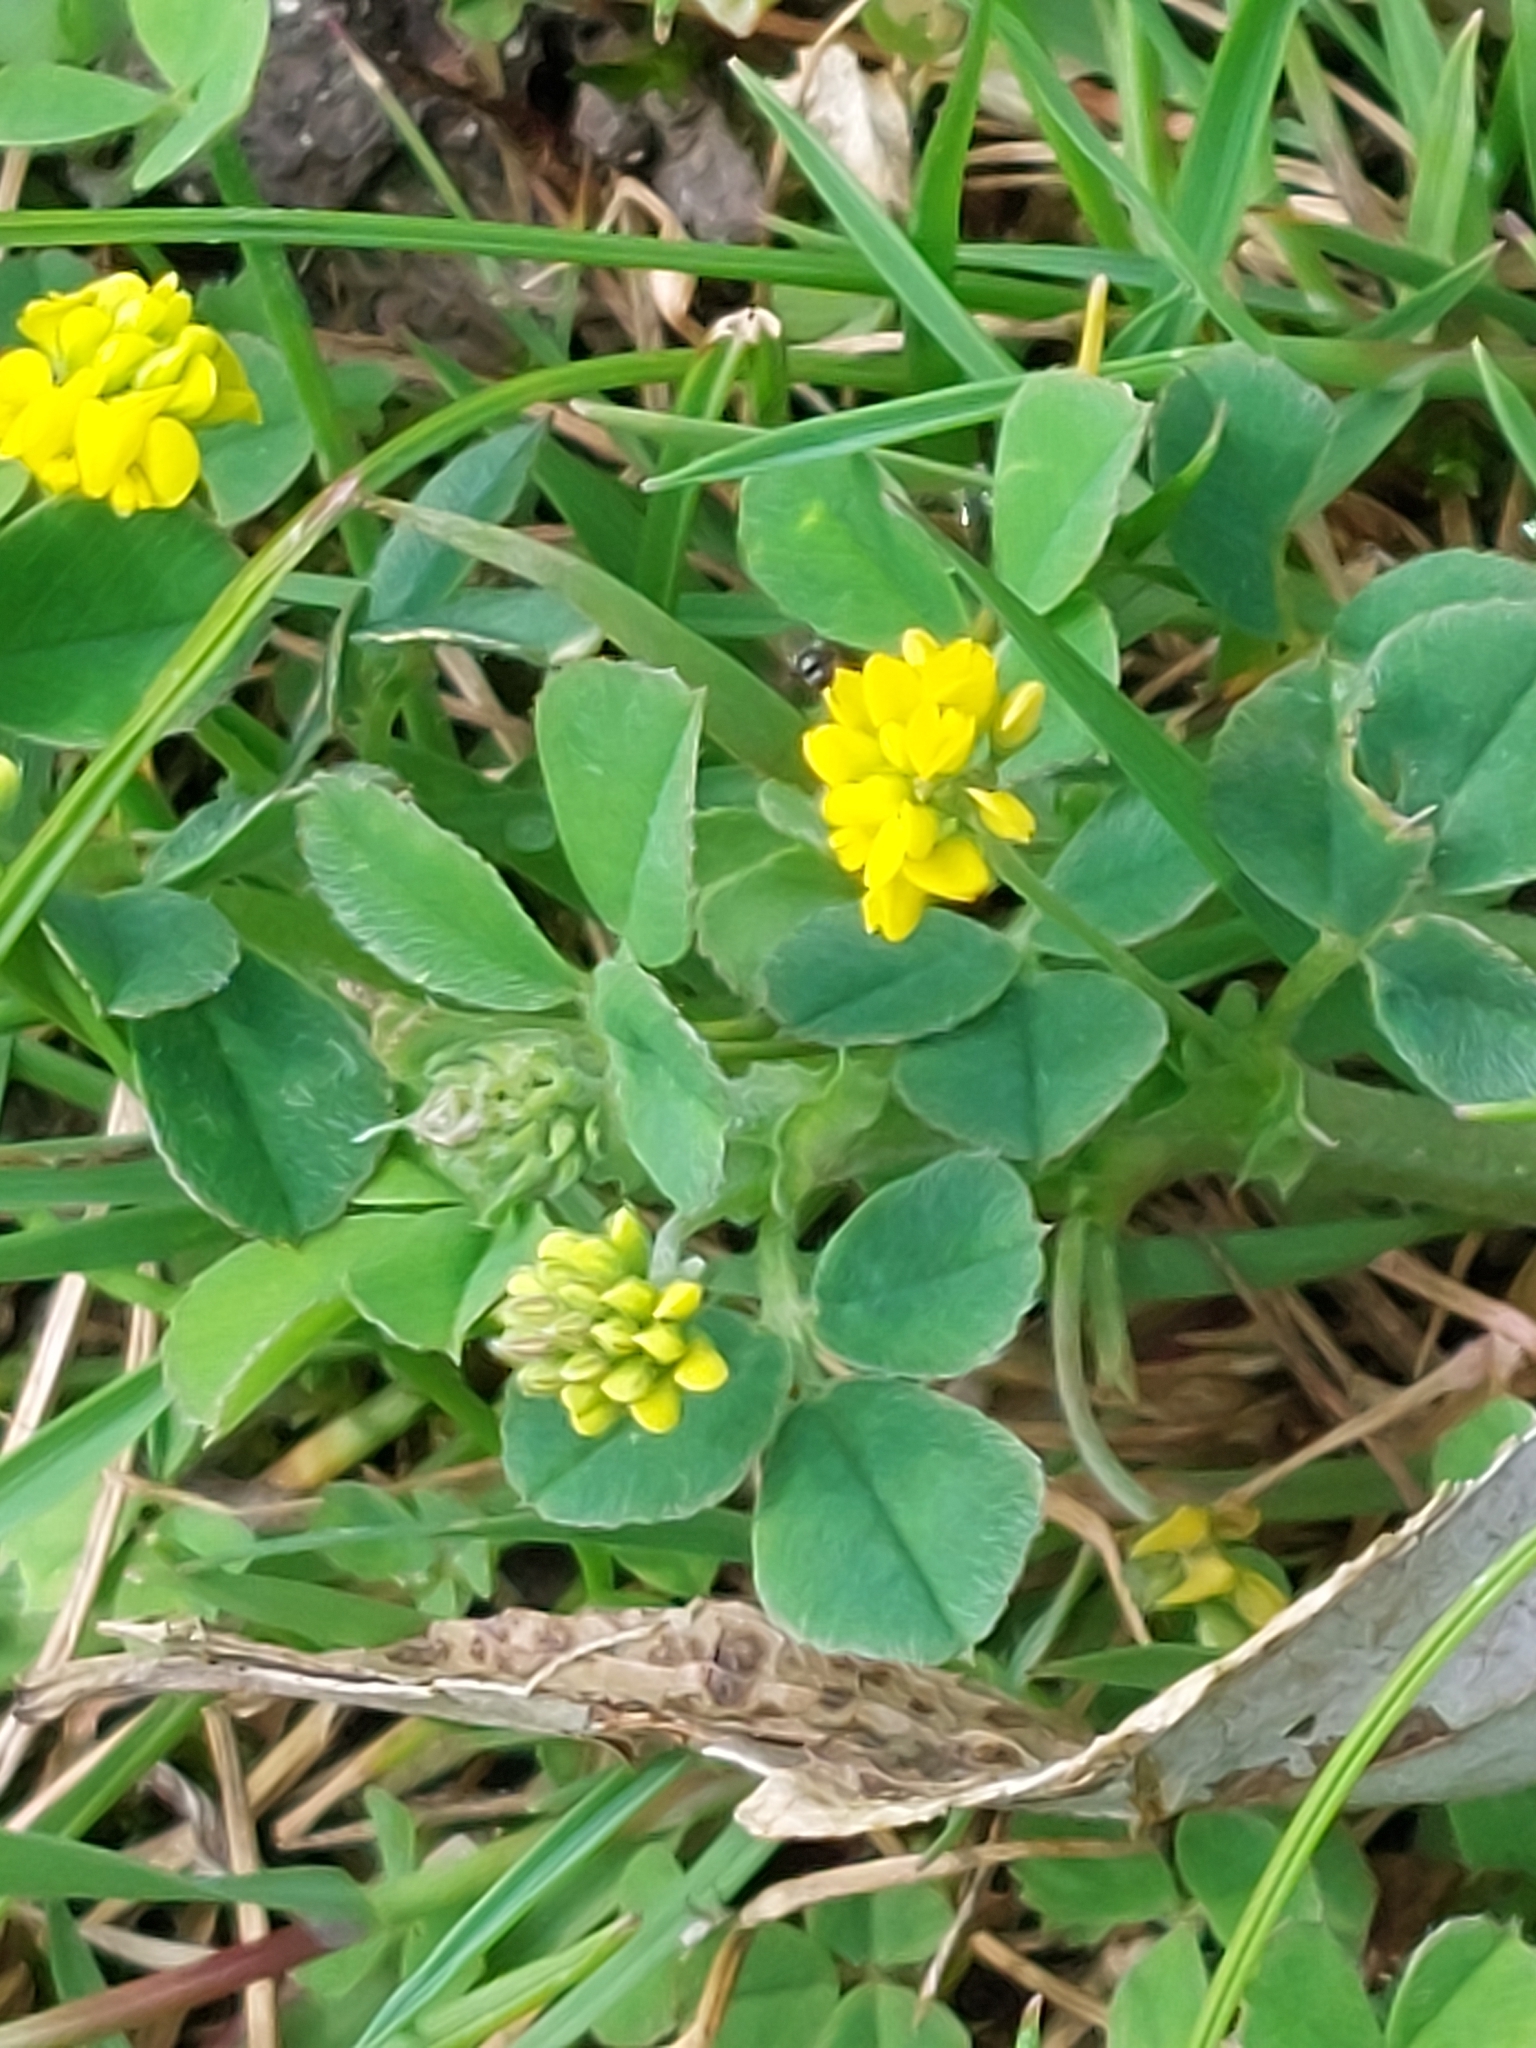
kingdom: Plantae
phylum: Tracheophyta
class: Magnoliopsida
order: Fabales
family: Fabaceae
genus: Medicago
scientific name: Medicago lupulina
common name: Black medick
